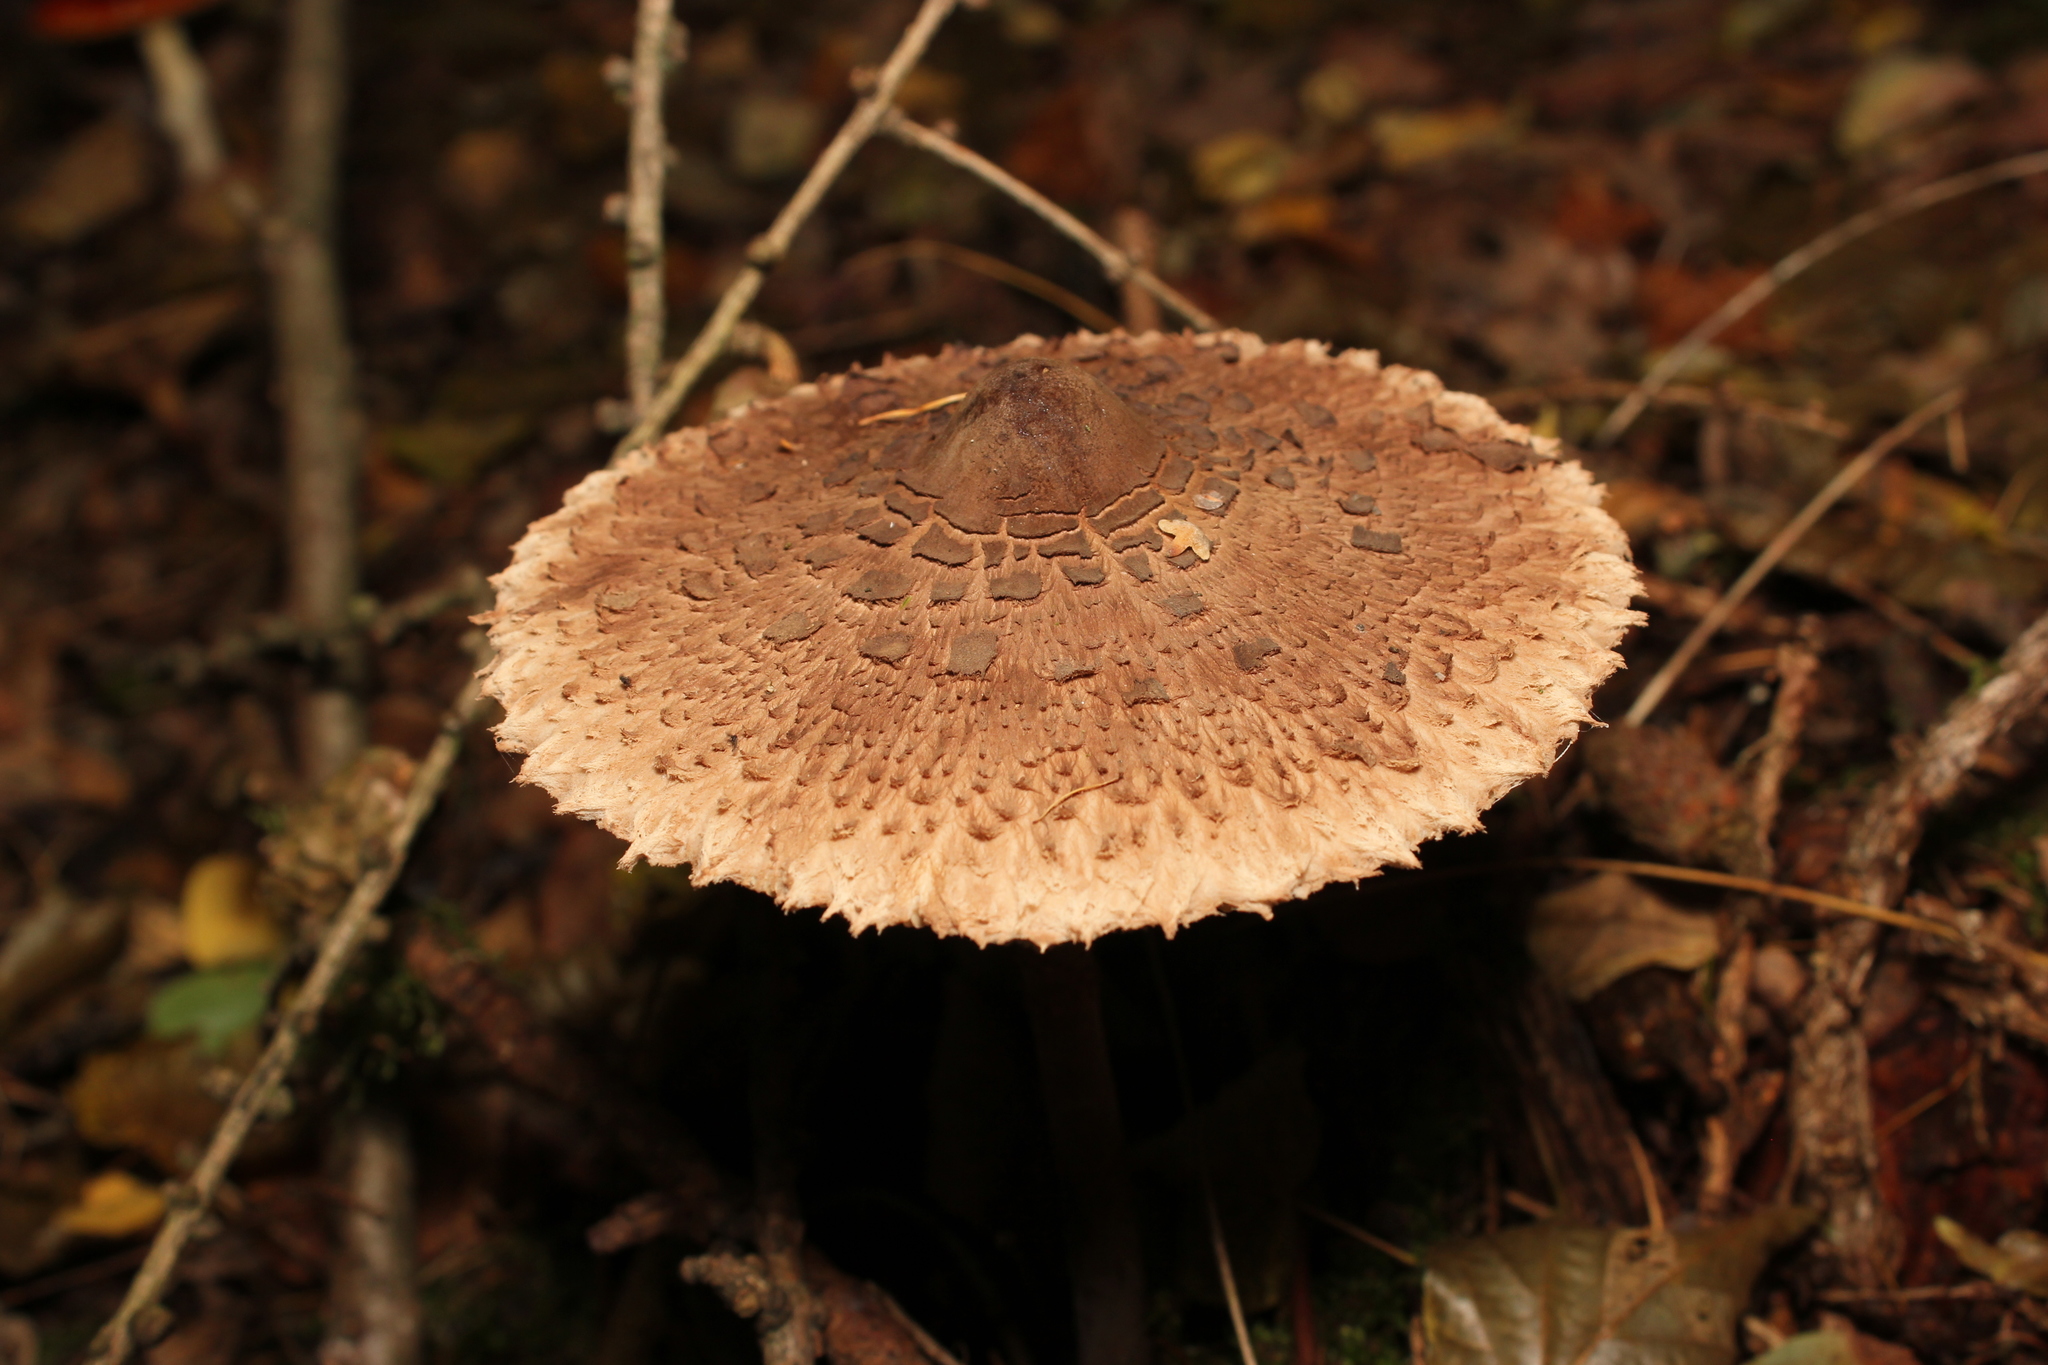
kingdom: Fungi
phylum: Basidiomycota
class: Agaricomycetes
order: Agaricales
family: Agaricaceae
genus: Macrolepiota
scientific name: Macrolepiota procera
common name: Parasol
